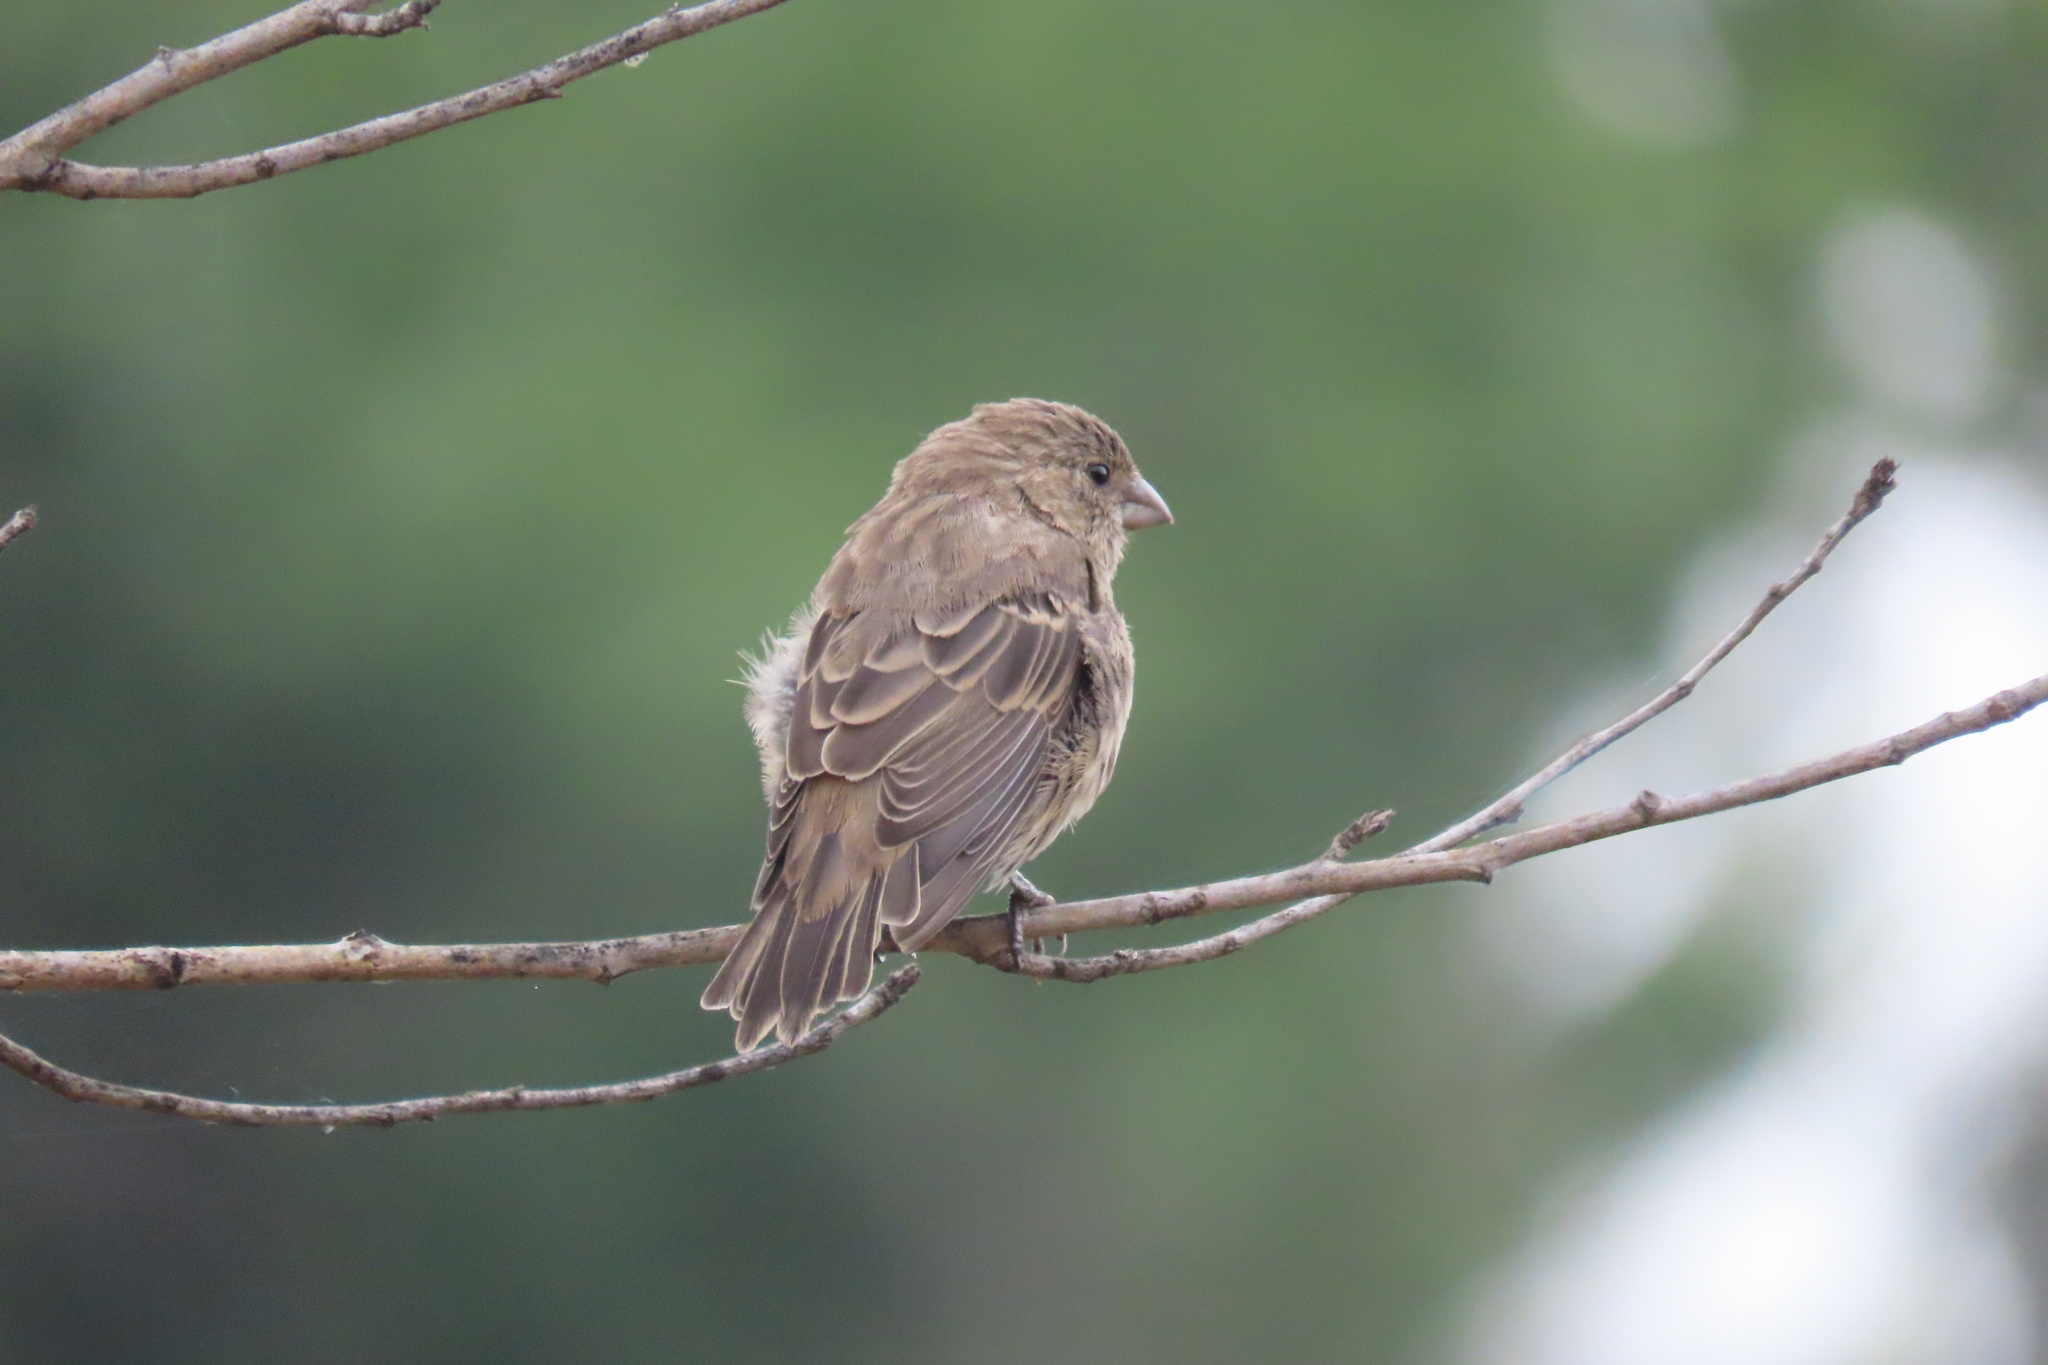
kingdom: Animalia
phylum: Chordata
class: Aves
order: Passeriformes
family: Fringillidae
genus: Haemorhous
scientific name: Haemorhous mexicanus
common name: House finch
